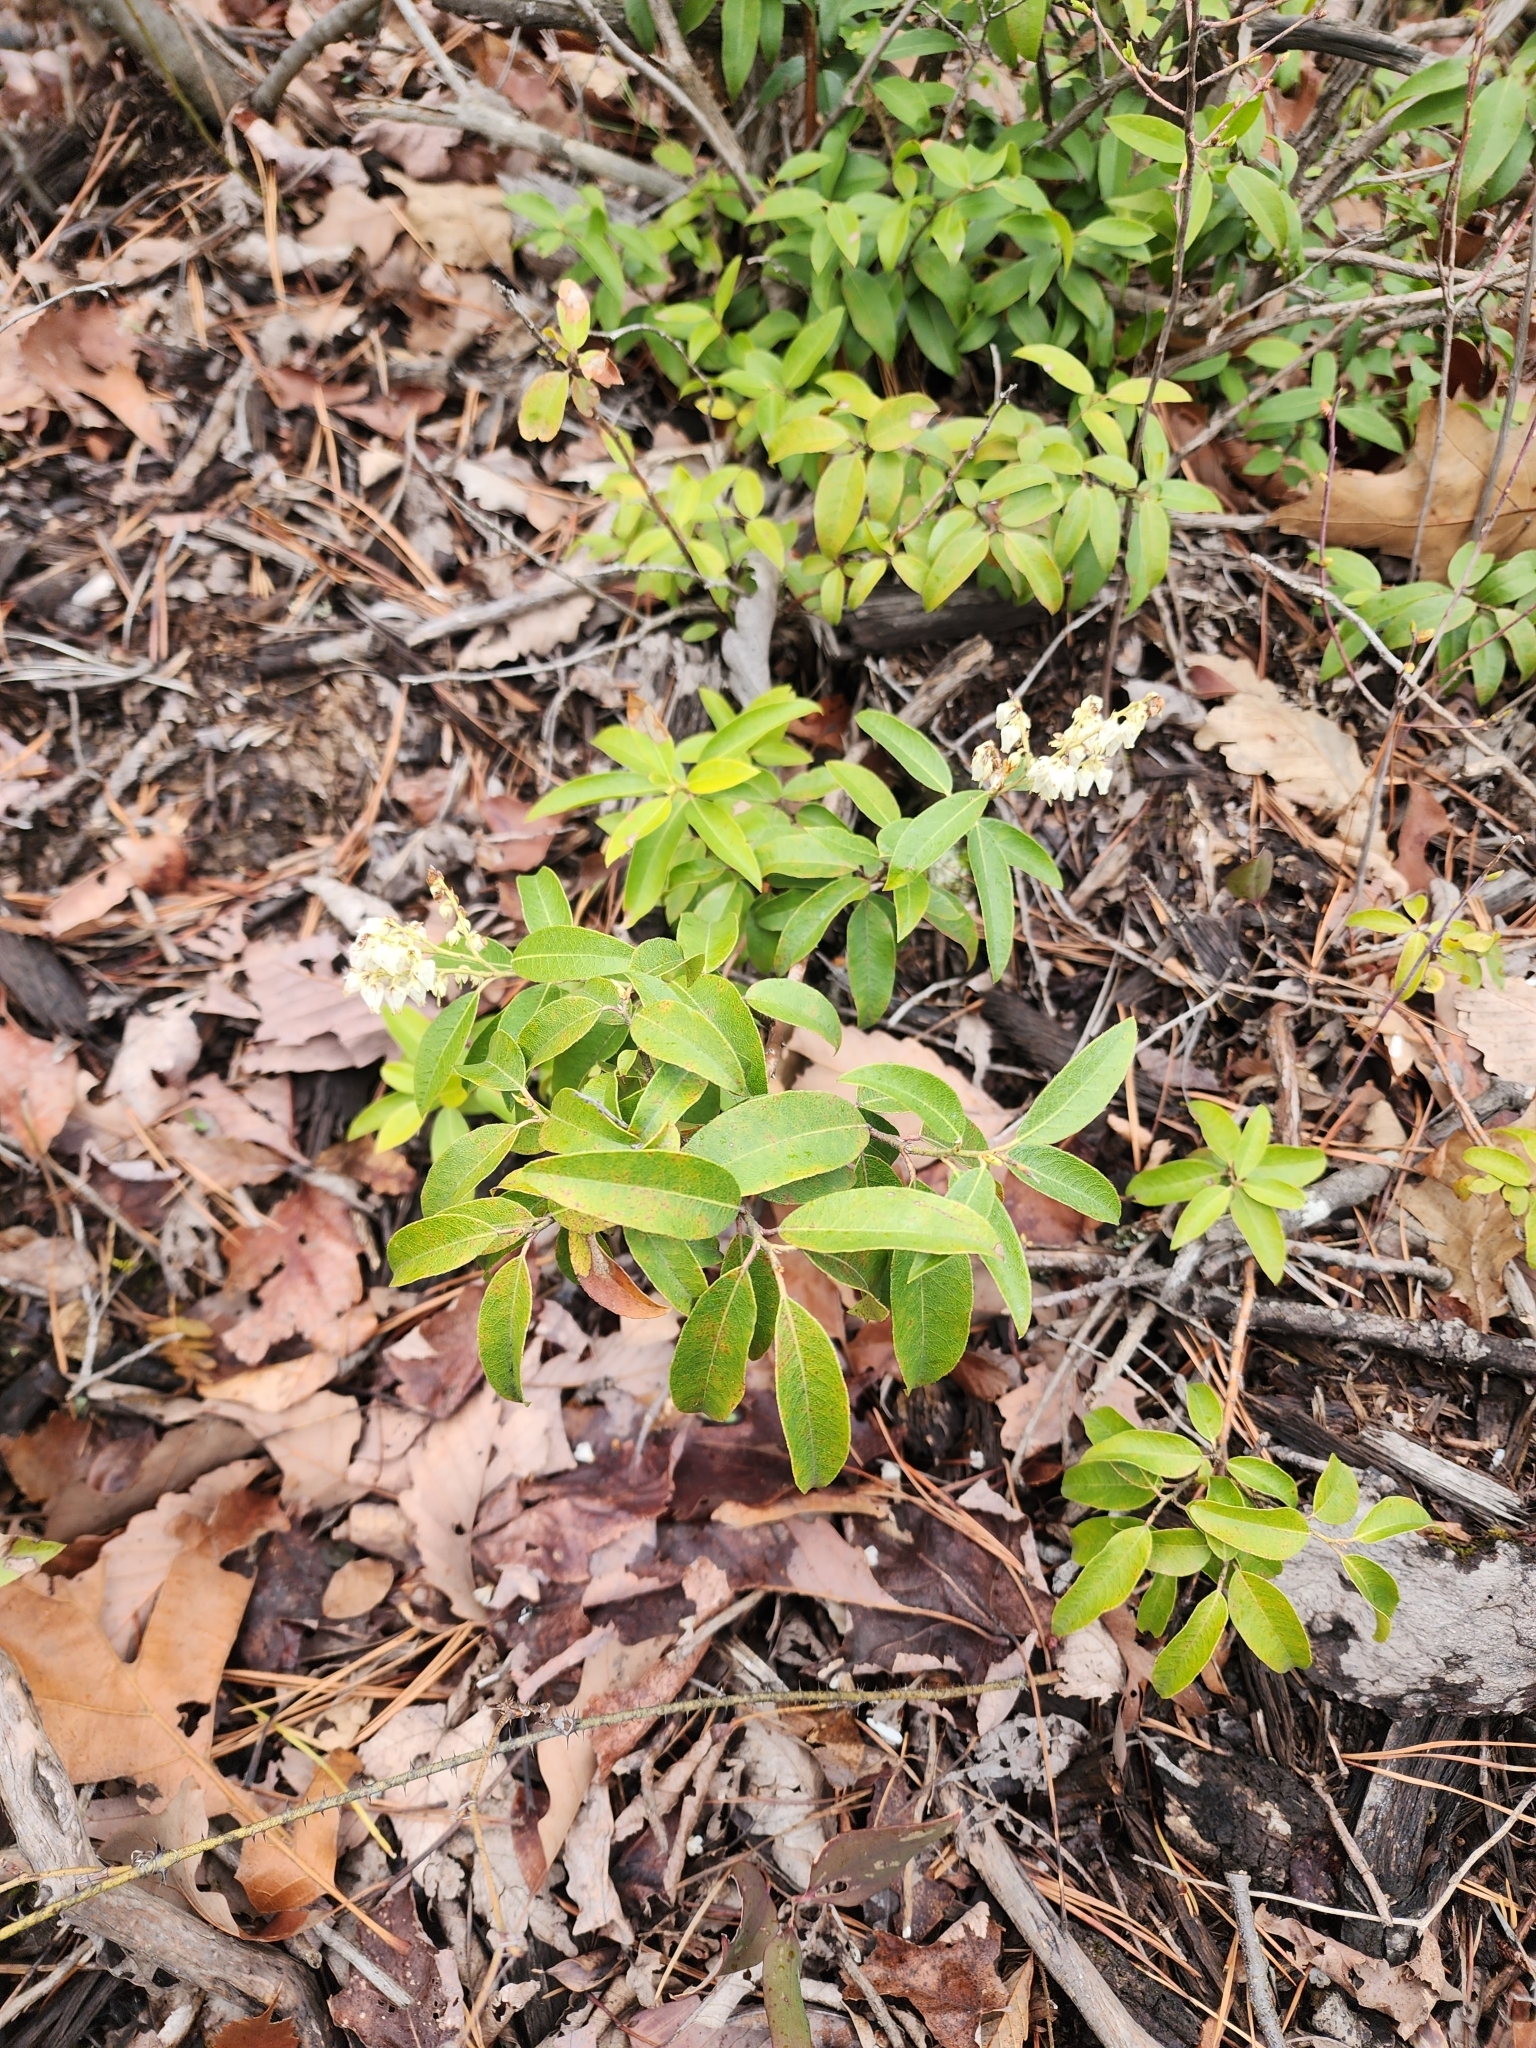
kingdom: Plantae
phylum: Tracheophyta
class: Magnoliopsida
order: Ericales
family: Ericaceae
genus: Pieris
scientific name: Pieris floribunda
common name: Flutterbush
